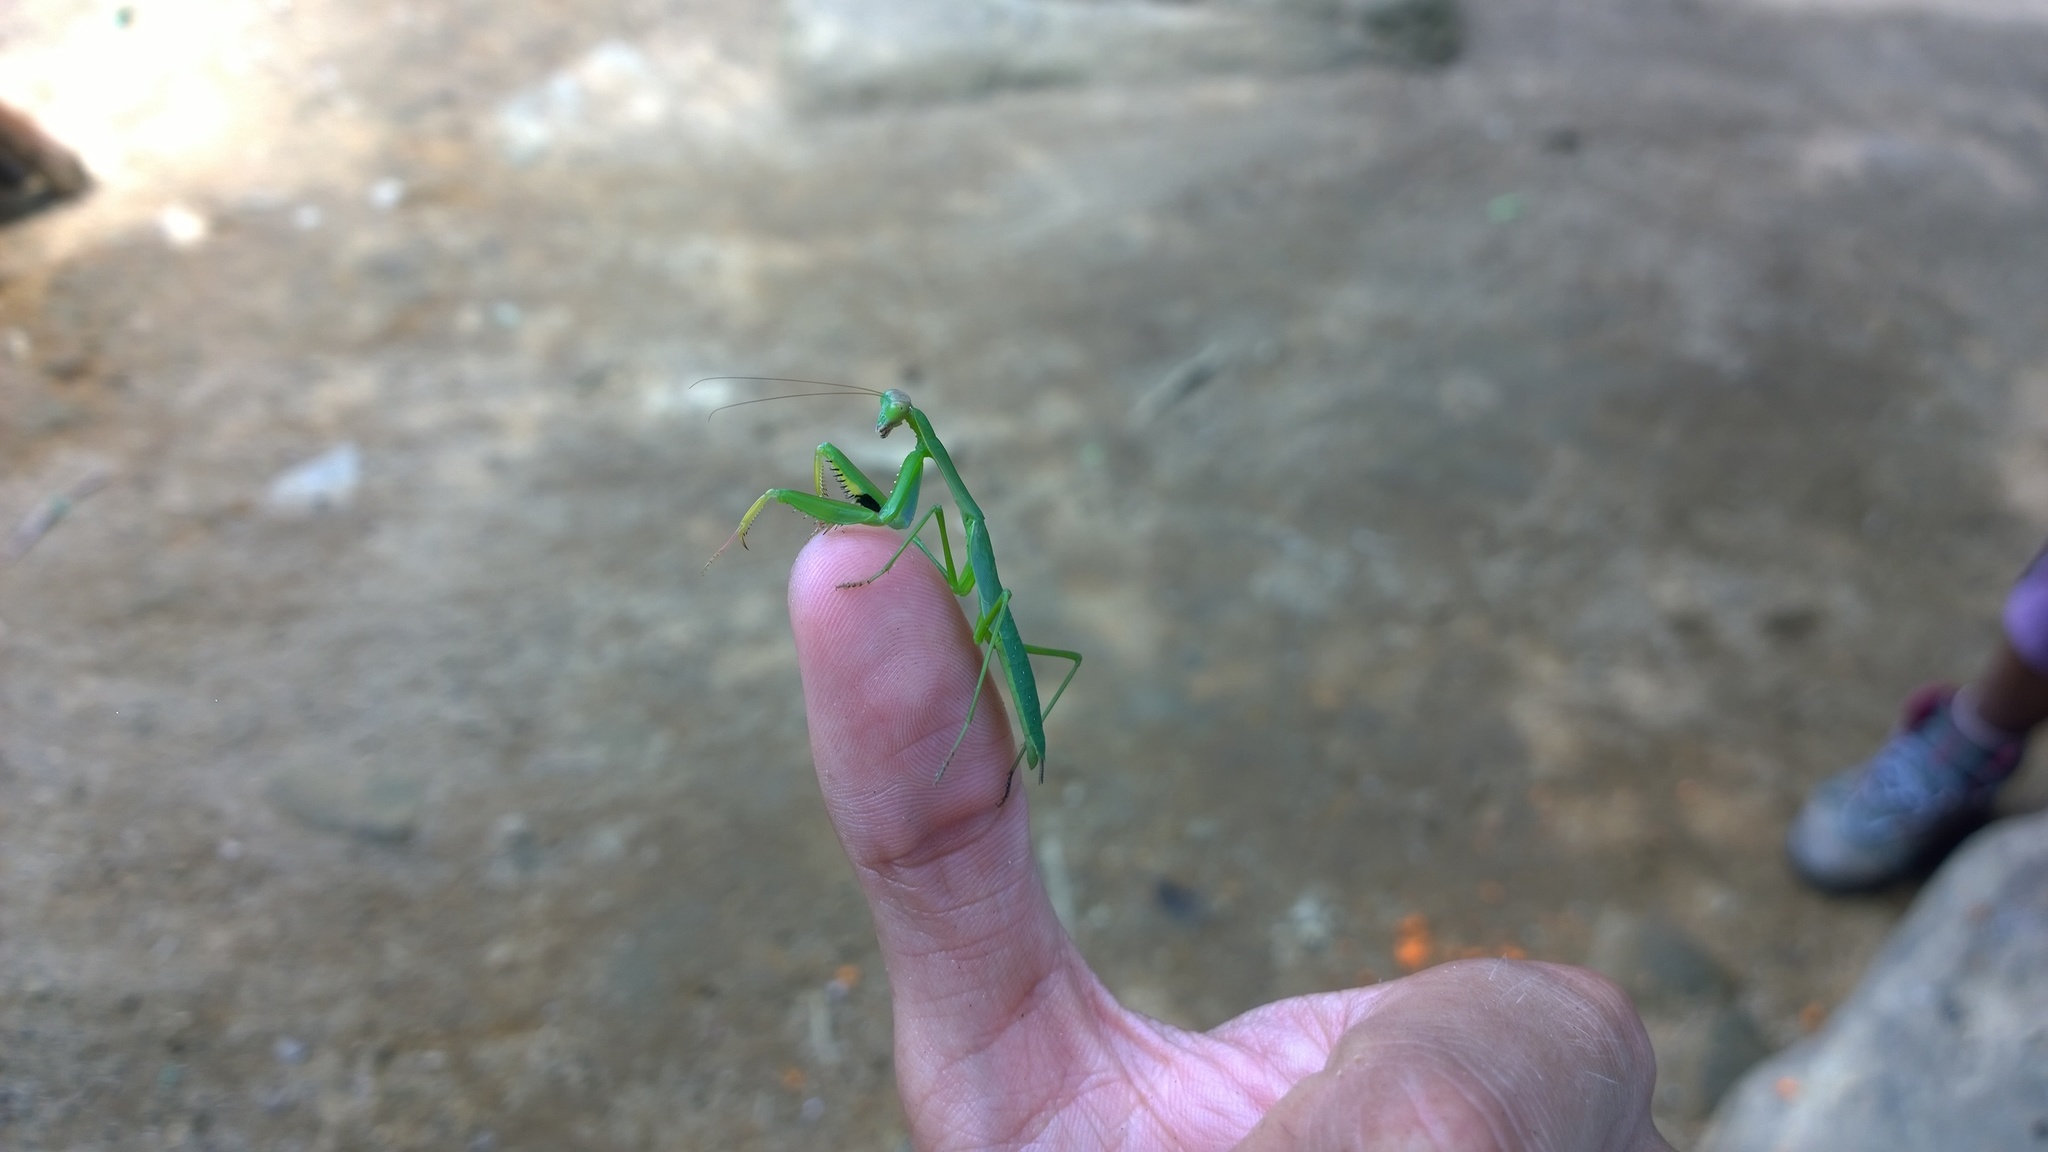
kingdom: Animalia
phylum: Arthropoda
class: Insecta
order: Mantodea
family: Mantidae
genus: Polyspilota
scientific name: Polyspilota aeruginosa
